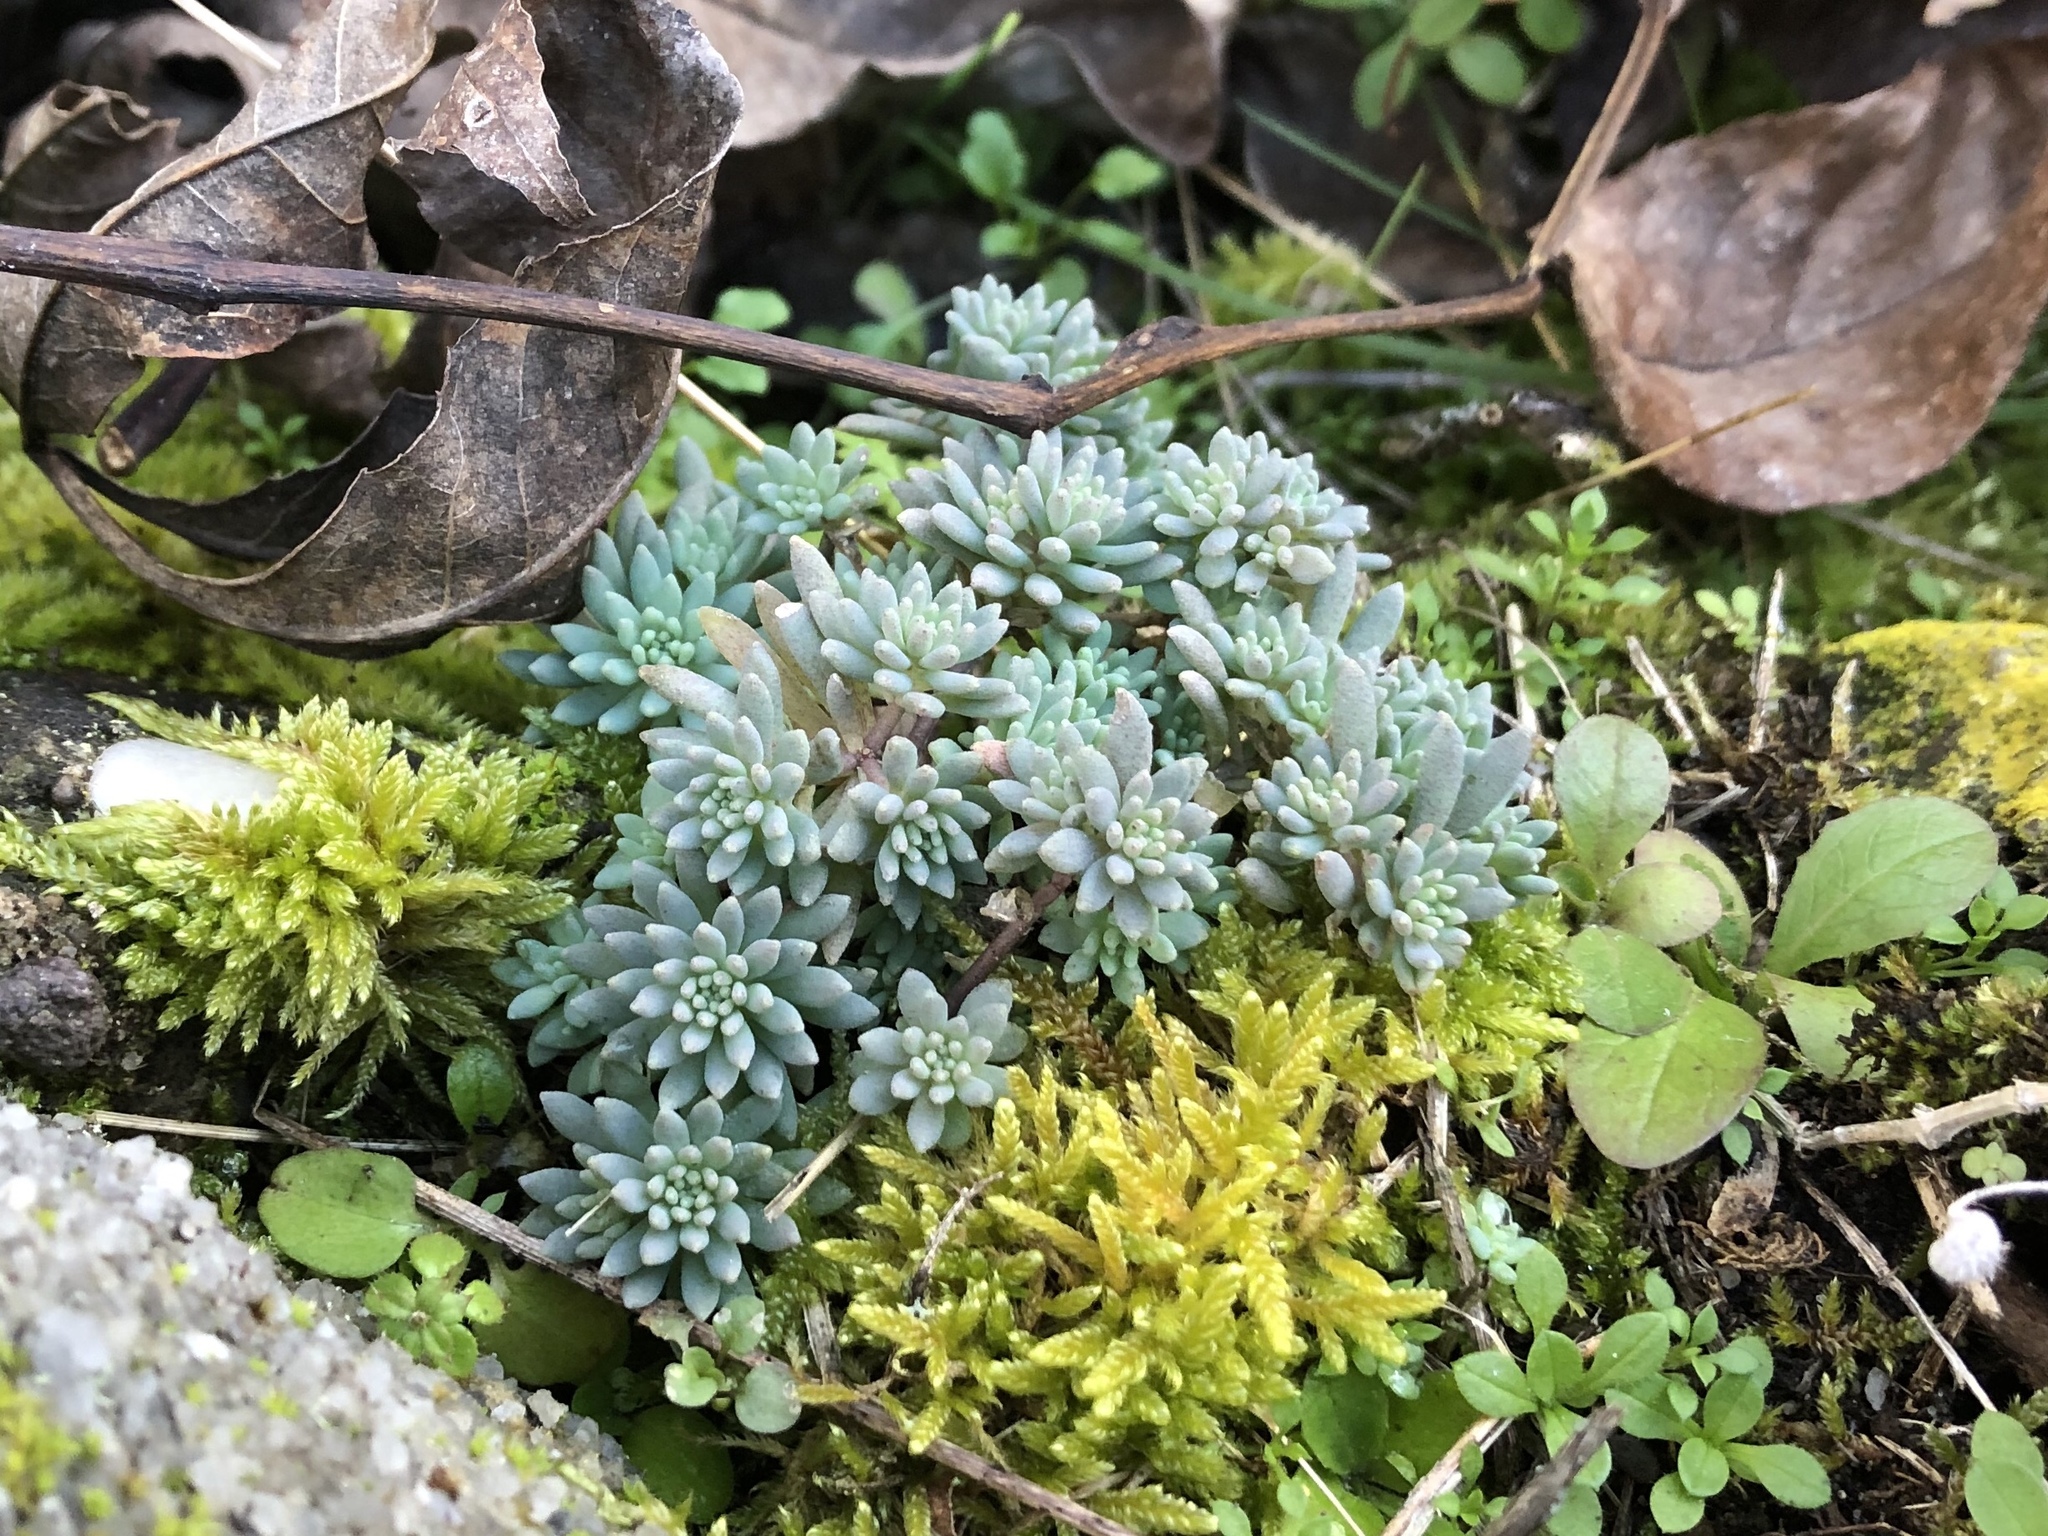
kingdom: Plantae
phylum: Tracheophyta
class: Magnoliopsida
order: Saxifragales
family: Crassulaceae
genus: Sedum
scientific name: Sedum hispanicum
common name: Spanish stonecrop
